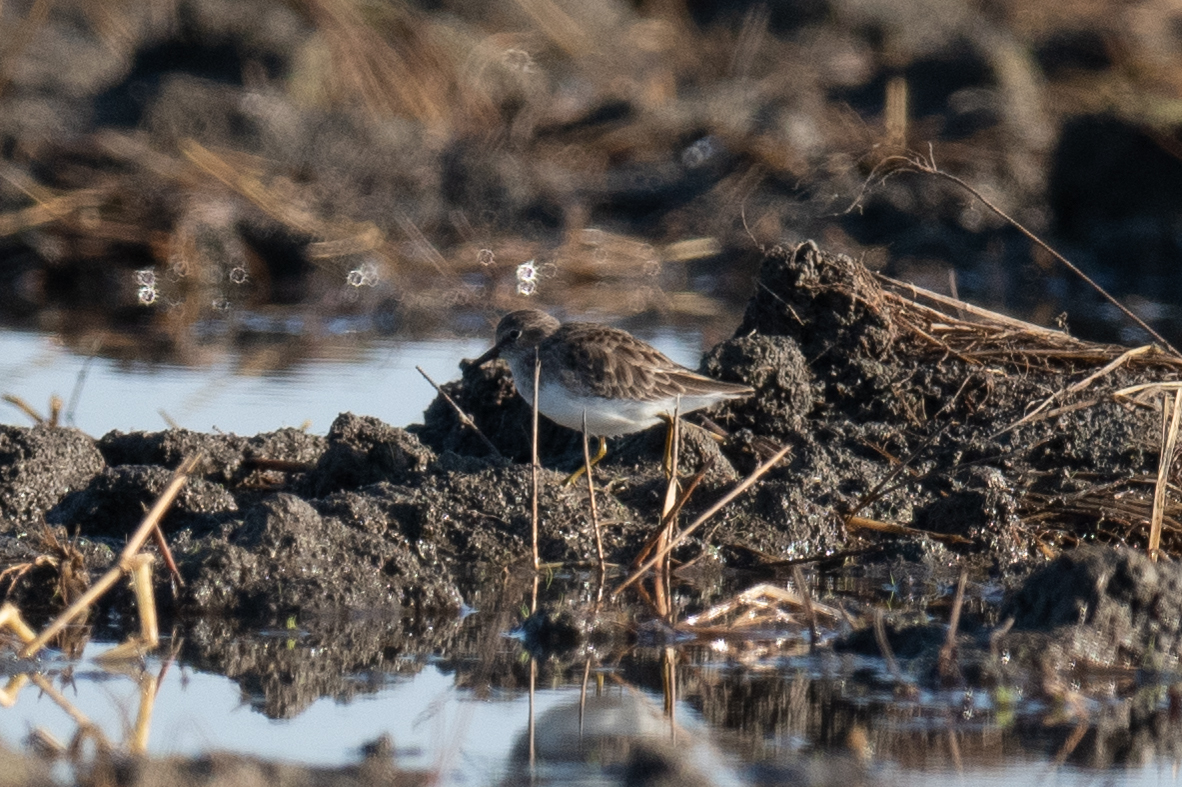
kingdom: Animalia
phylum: Chordata
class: Aves
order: Charadriiformes
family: Scolopacidae
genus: Calidris
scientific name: Calidris minutilla
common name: Least sandpiper
